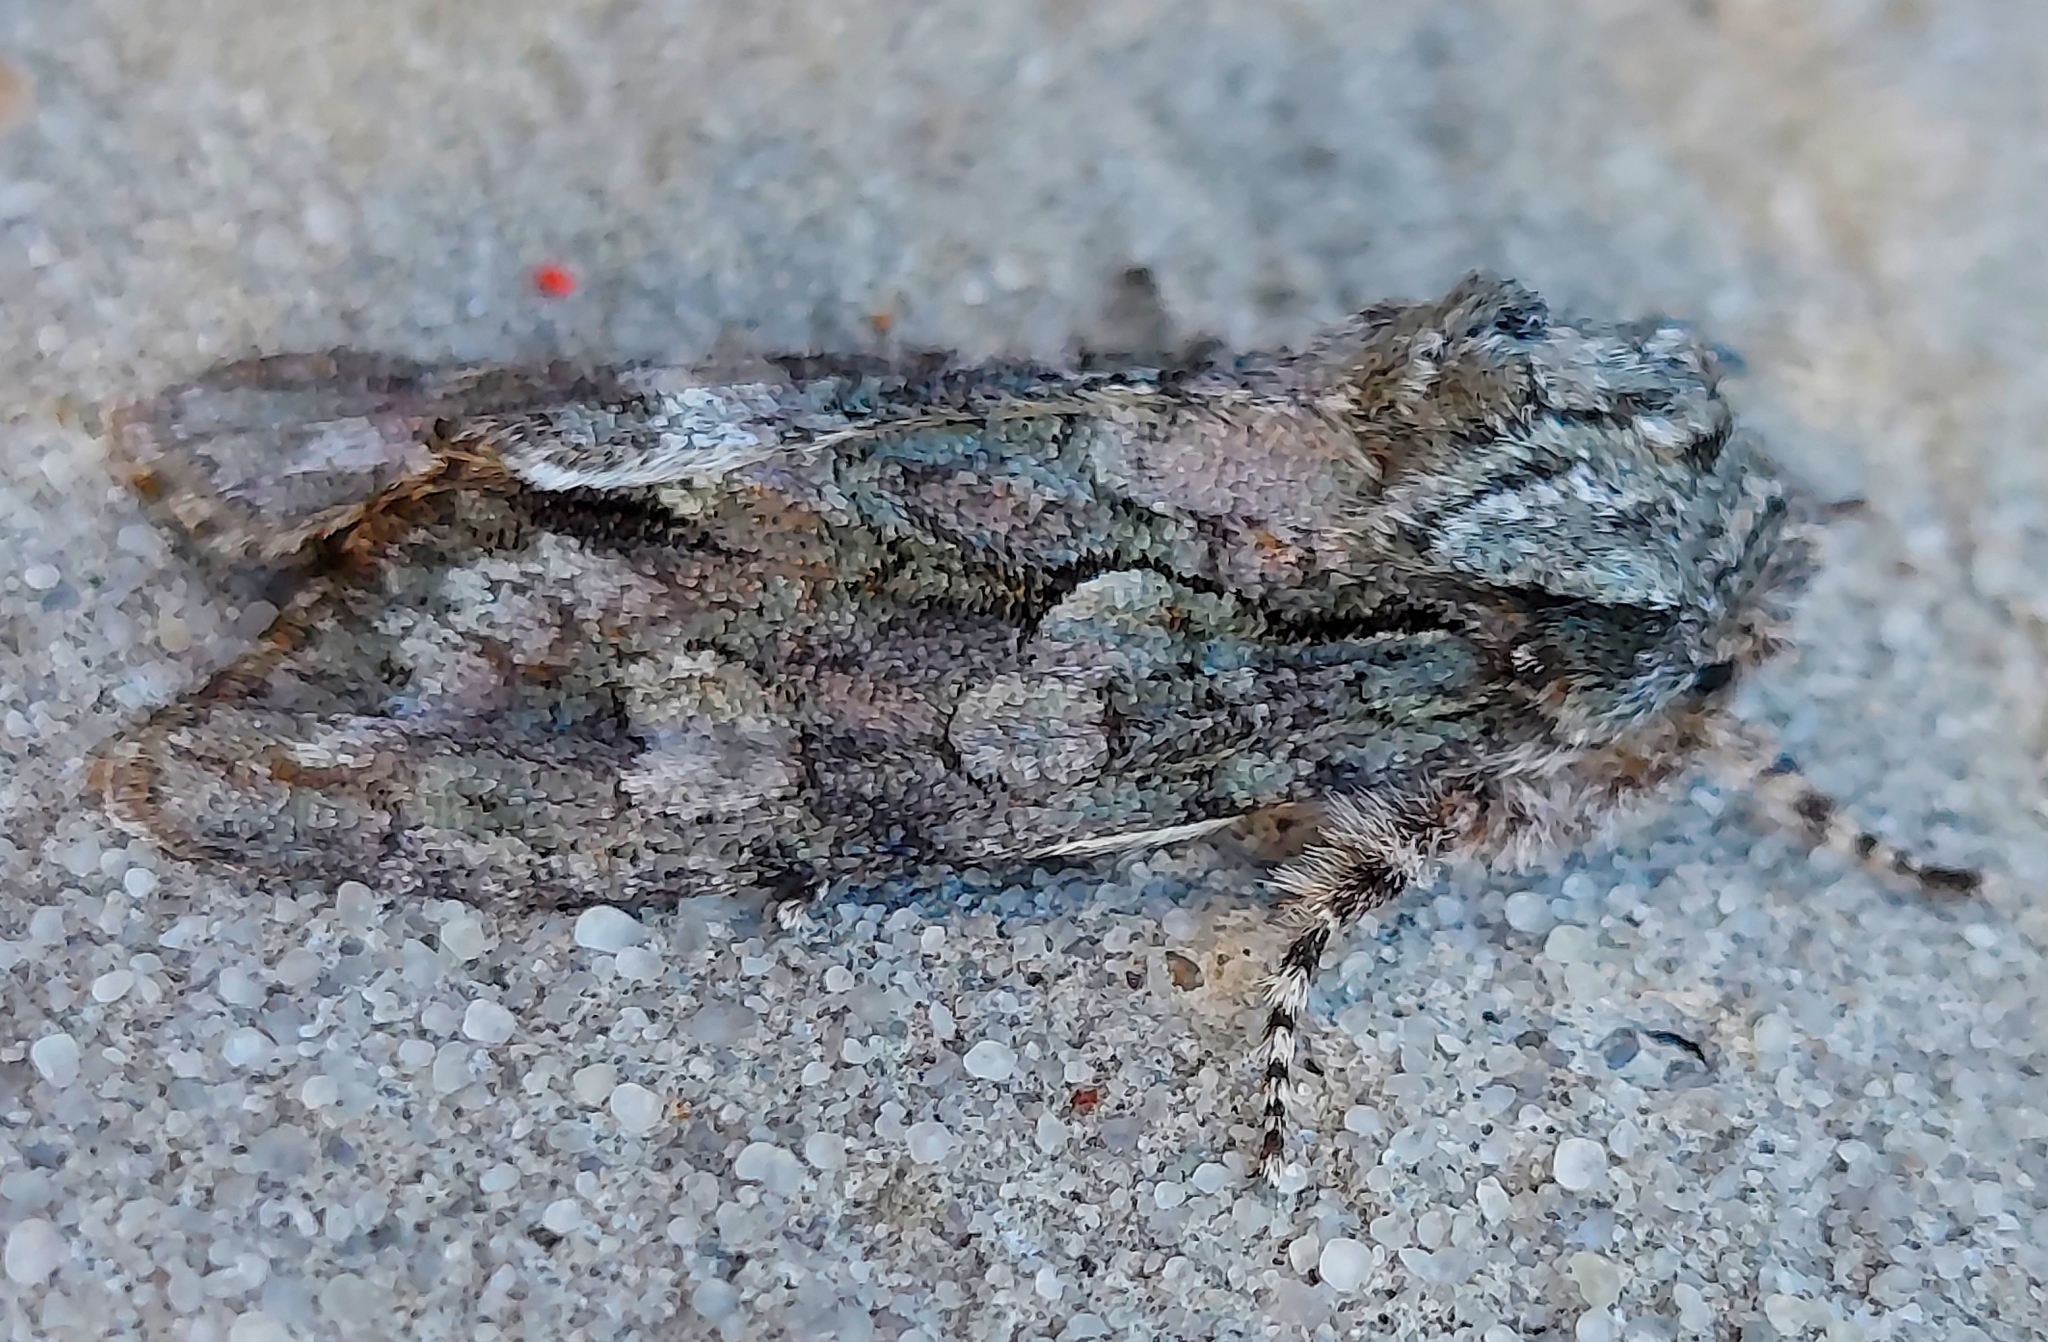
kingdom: Animalia
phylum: Arthropoda
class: Insecta
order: Lepidoptera
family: Noctuidae
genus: Psaphida
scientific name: Psaphida resumens
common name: Figure-eight sallow
